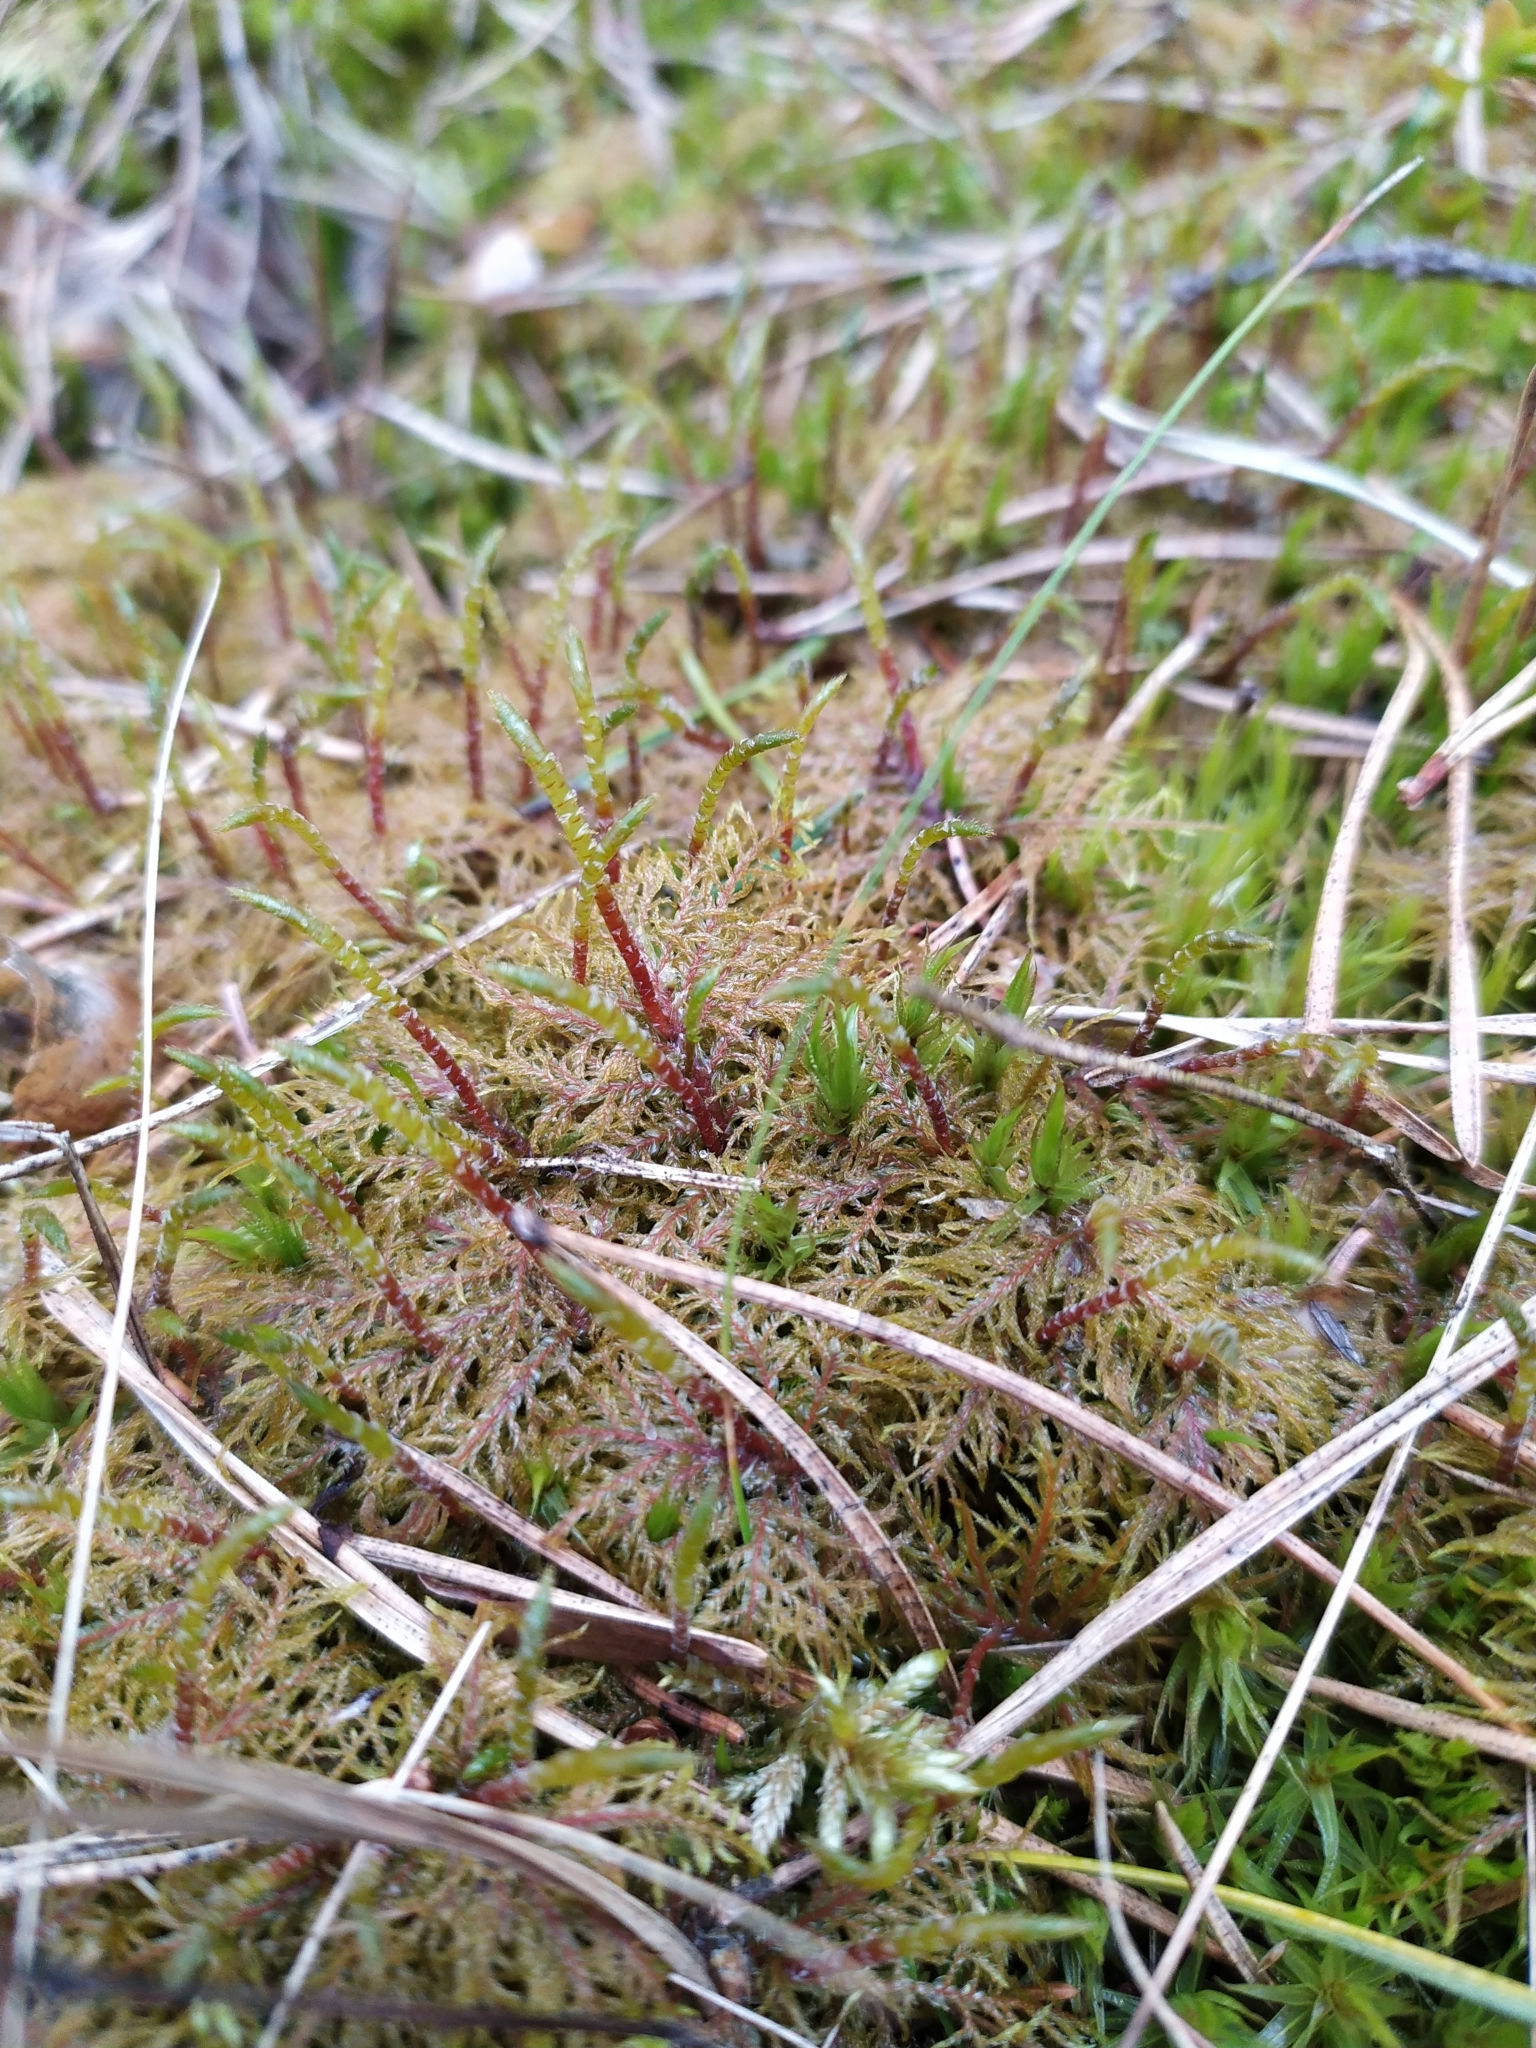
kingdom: Plantae
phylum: Bryophyta
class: Bryopsida
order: Hypnales
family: Hylocomiaceae
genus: Hylocomium
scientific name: Hylocomium splendens
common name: Stairstep moss
